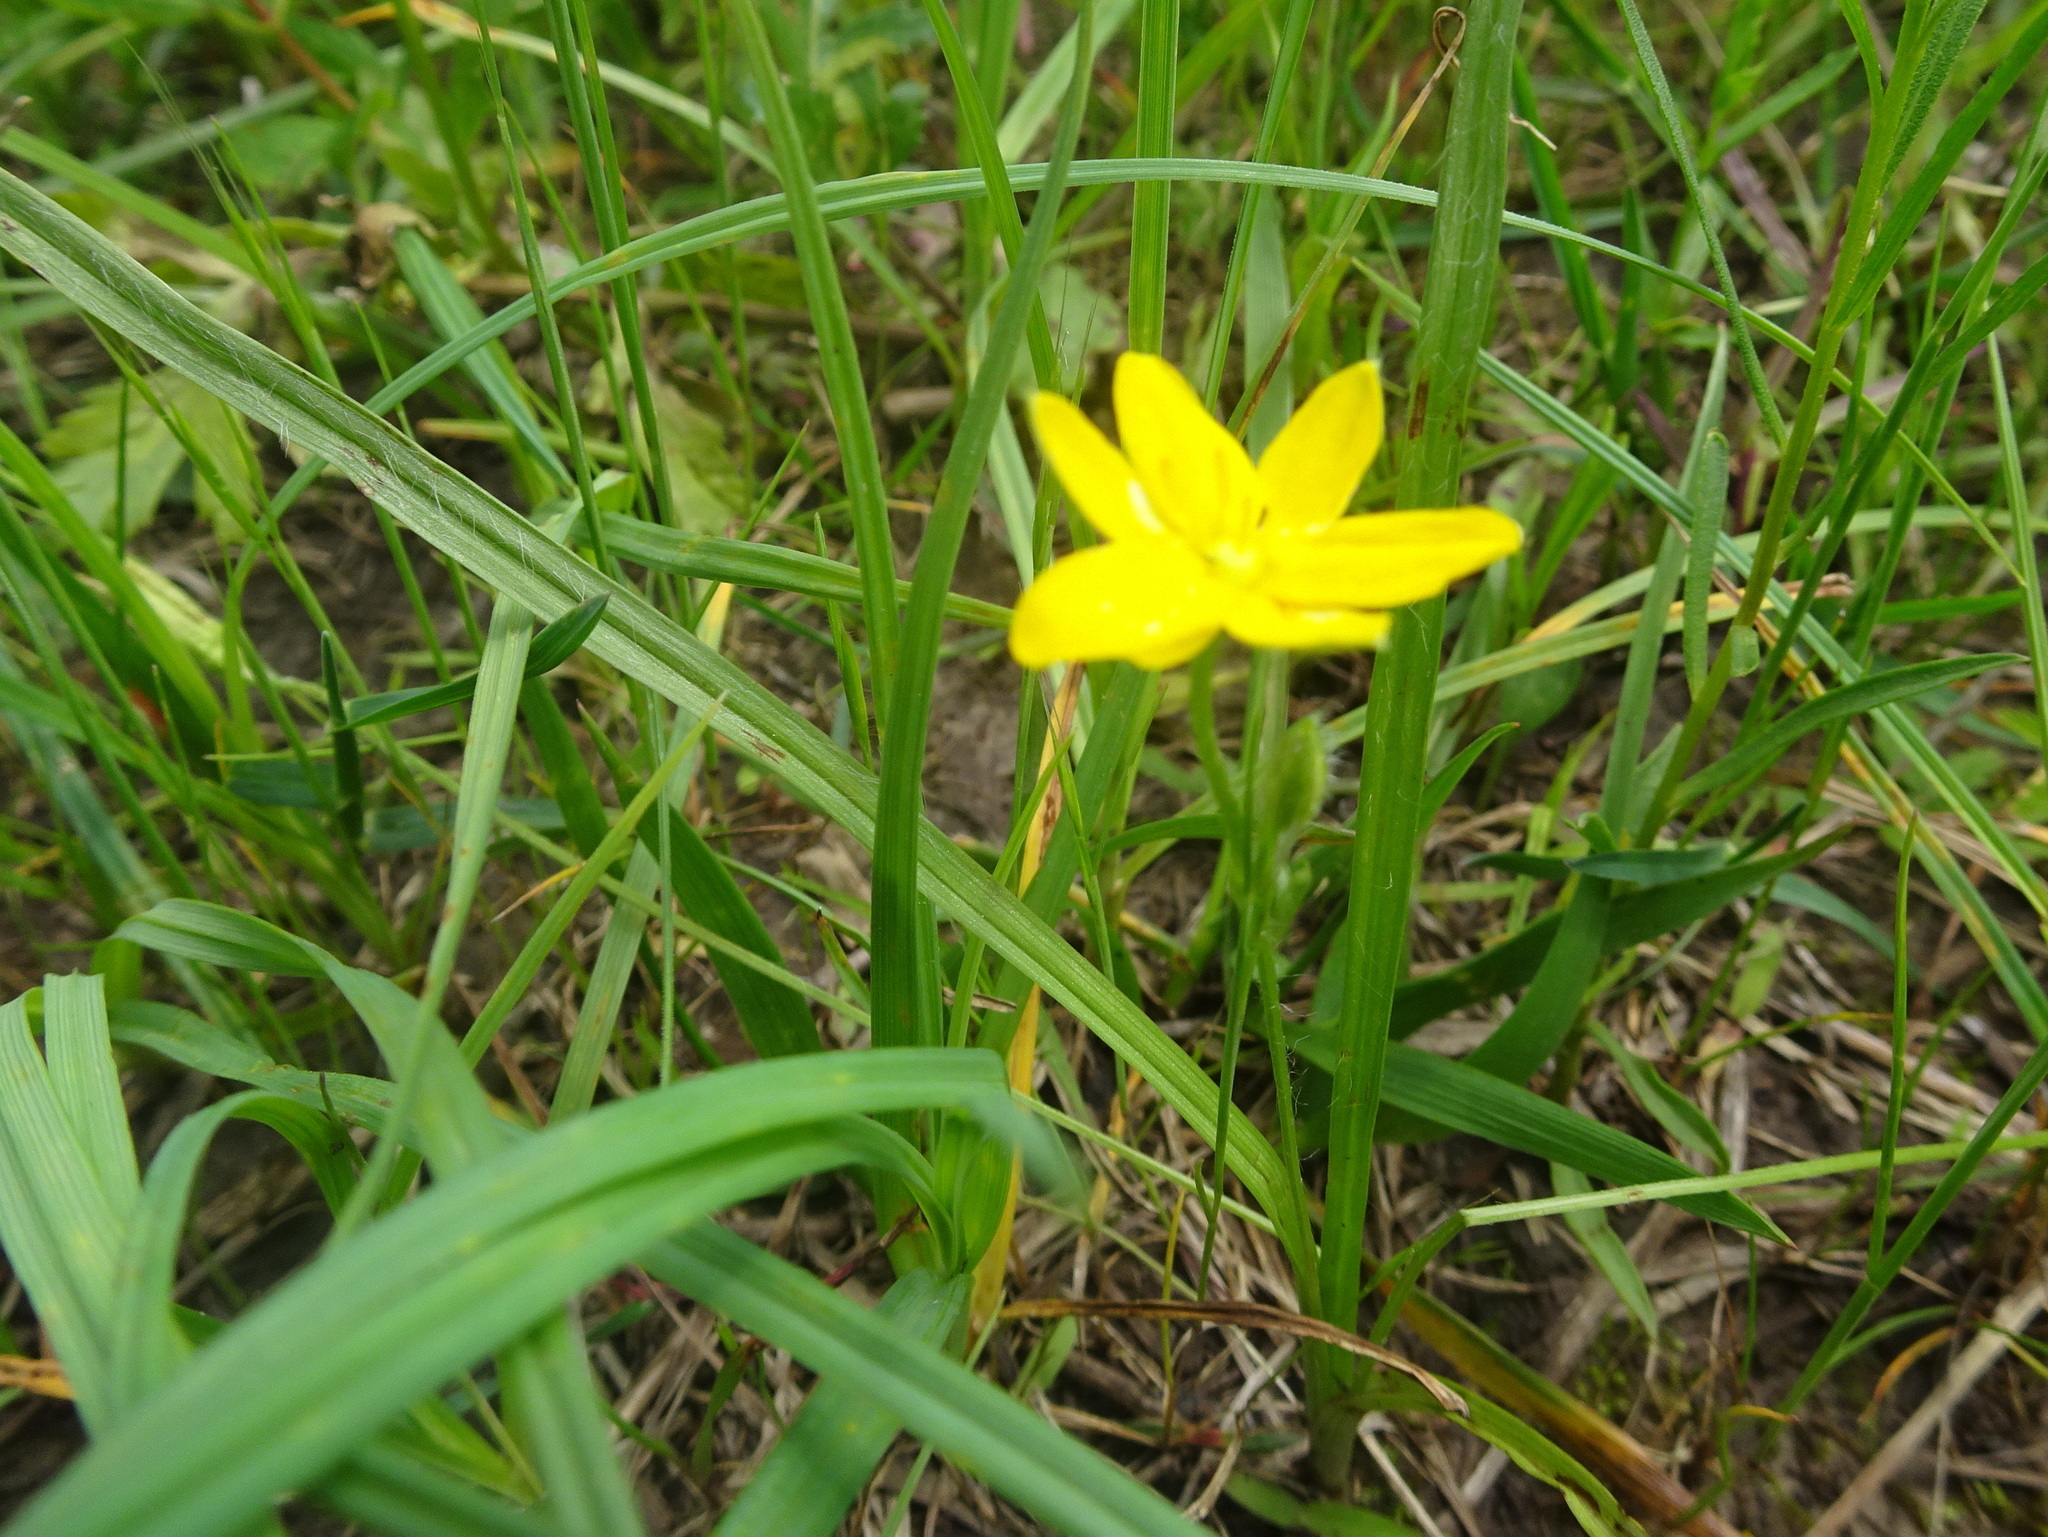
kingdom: Plantae
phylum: Tracheophyta
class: Liliopsida
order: Asparagales
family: Hypoxidaceae
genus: Hypoxis
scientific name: Hypoxis hirsuta
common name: Common goldstar
